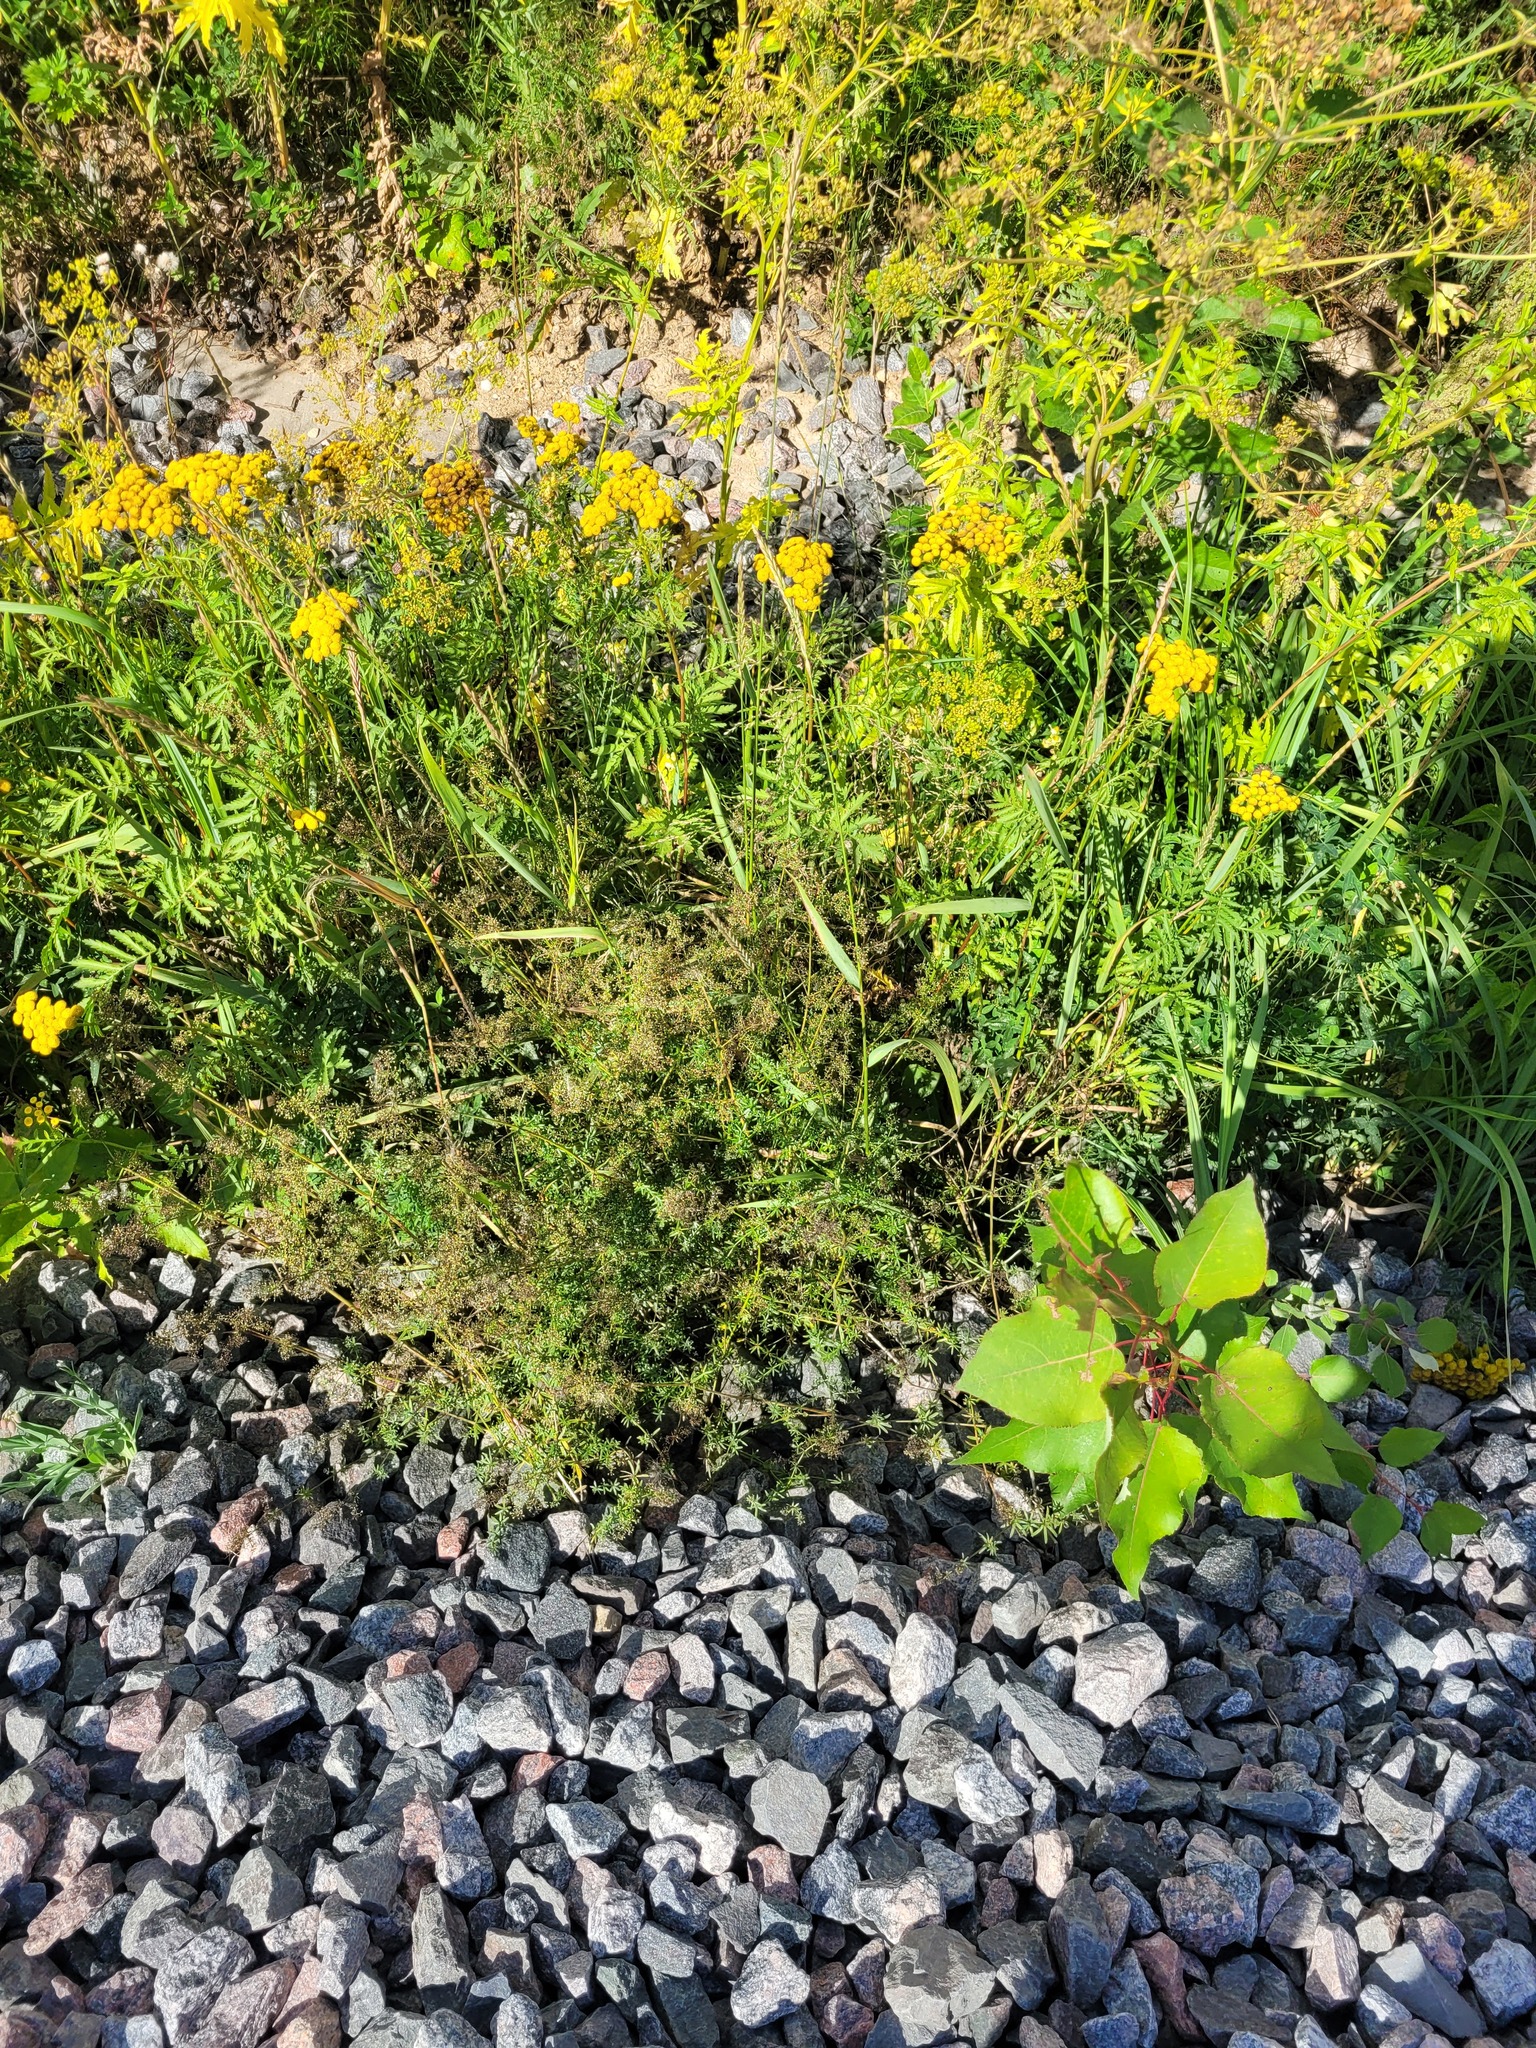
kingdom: Plantae
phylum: Tracheophyta
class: Magnoliopsida
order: Gentianales
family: Rubiaceae
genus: Galium
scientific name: Galium mollugo
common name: Hedge bedstraw
